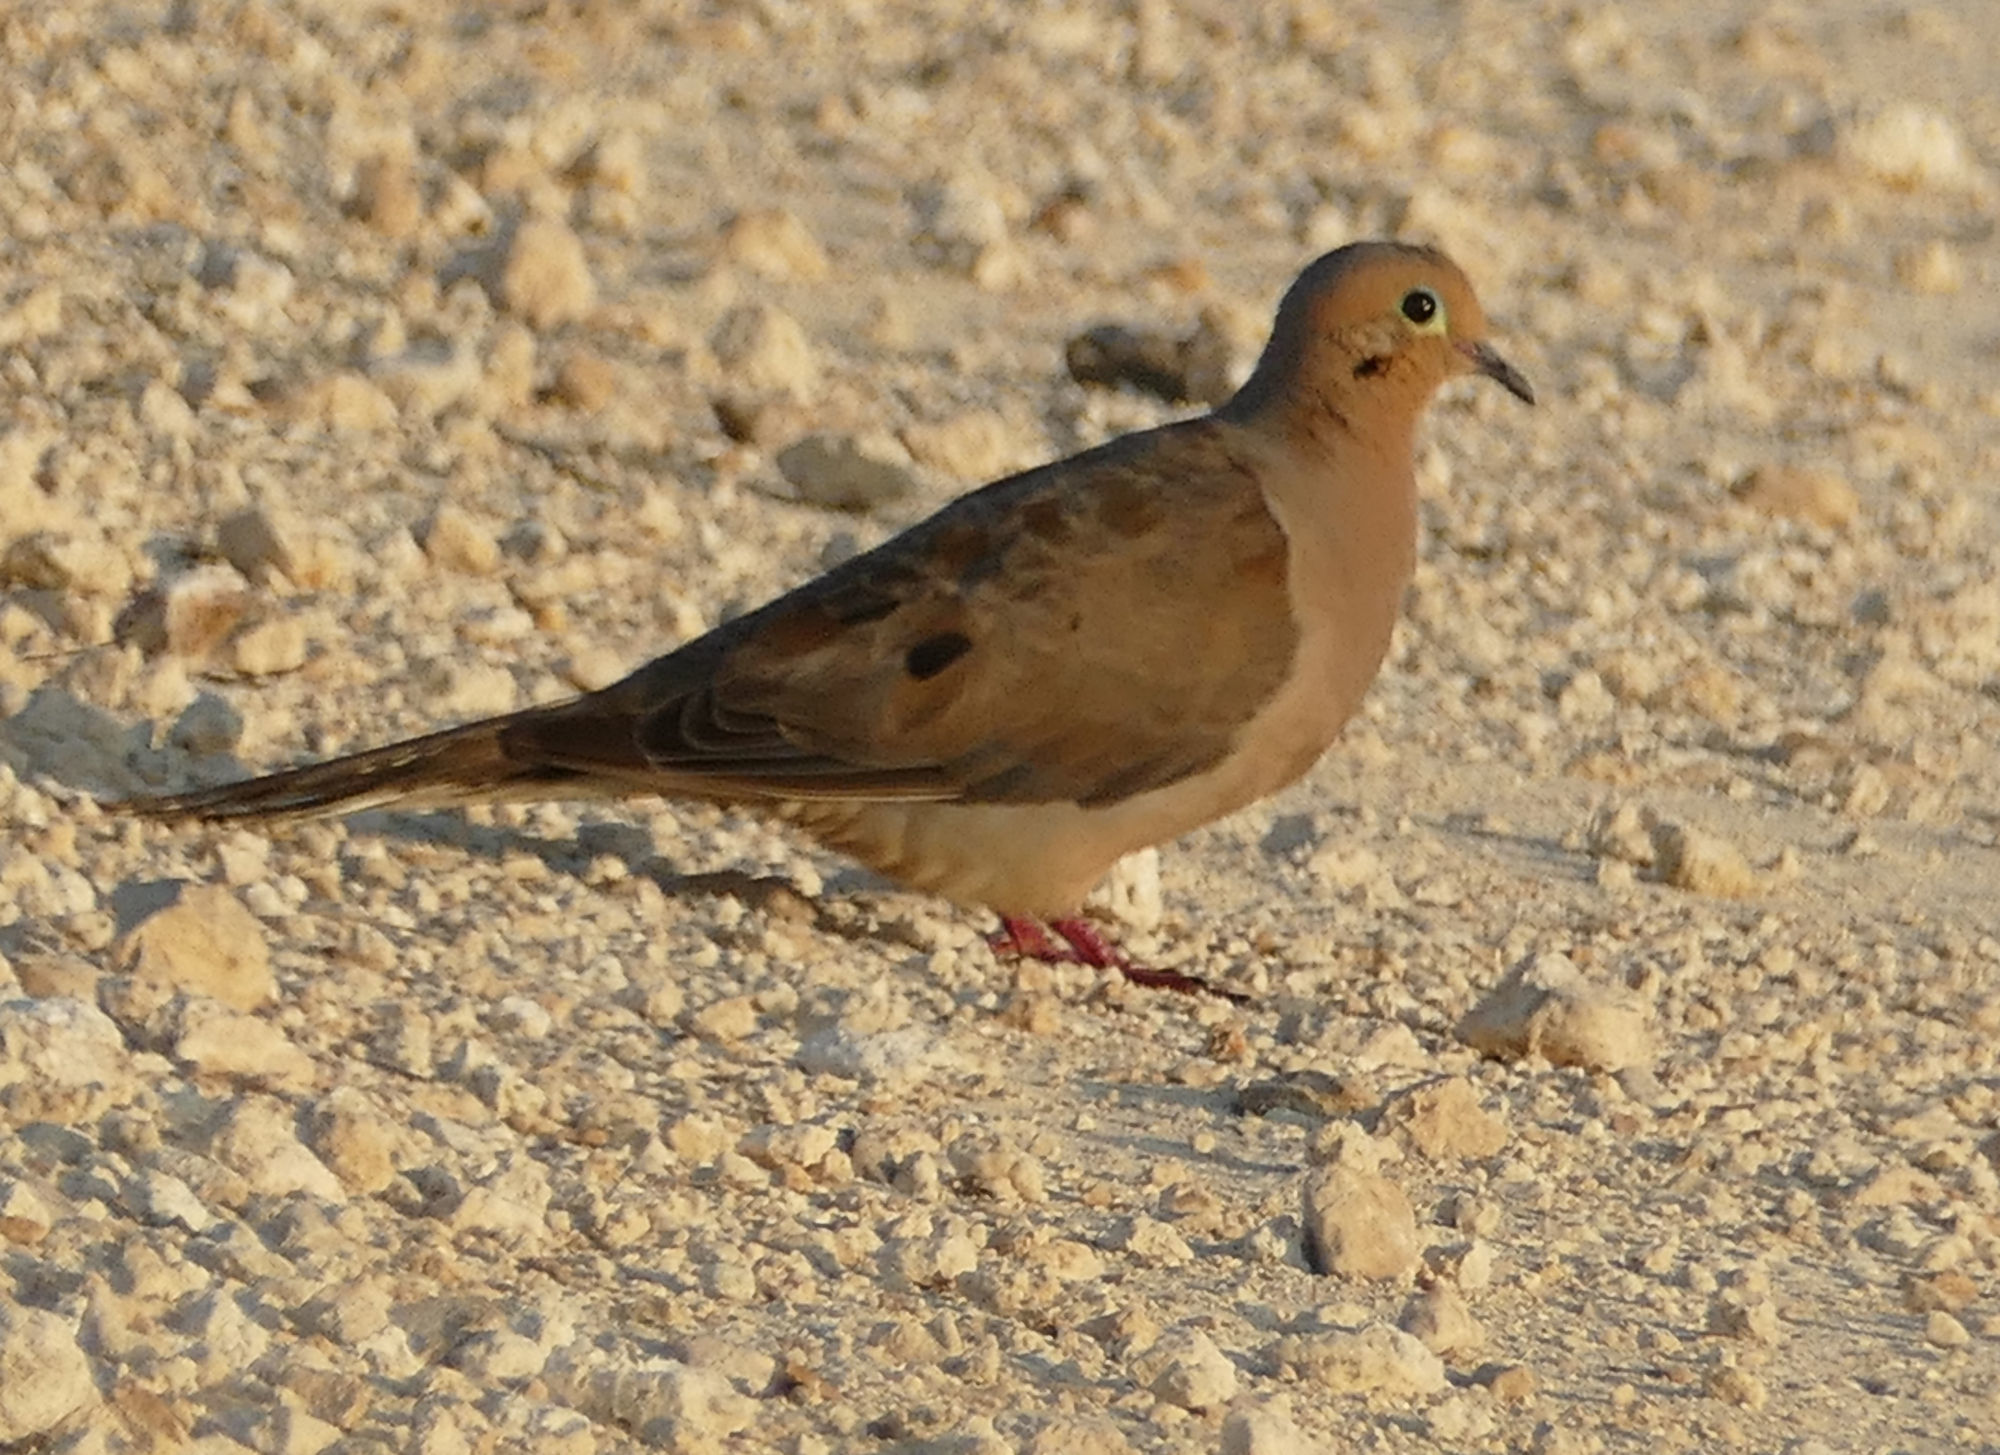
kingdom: Animalia
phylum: Chordata
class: Aves
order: Columbiformes
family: Columbidae
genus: Zenaida
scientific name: Zenaida macroura
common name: Mourning dove
